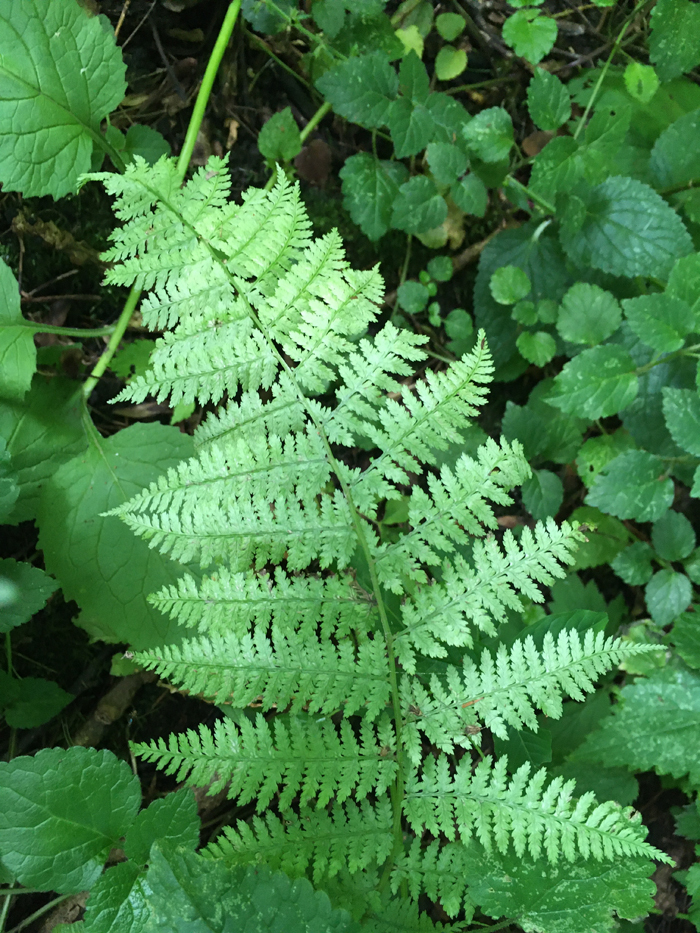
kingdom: Plantae
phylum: Tracheophyta
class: Polypodiopsida
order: Polypodiales
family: Athyriaceae
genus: Athyrium
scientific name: Athyrium filix-femina
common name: Lady fern
